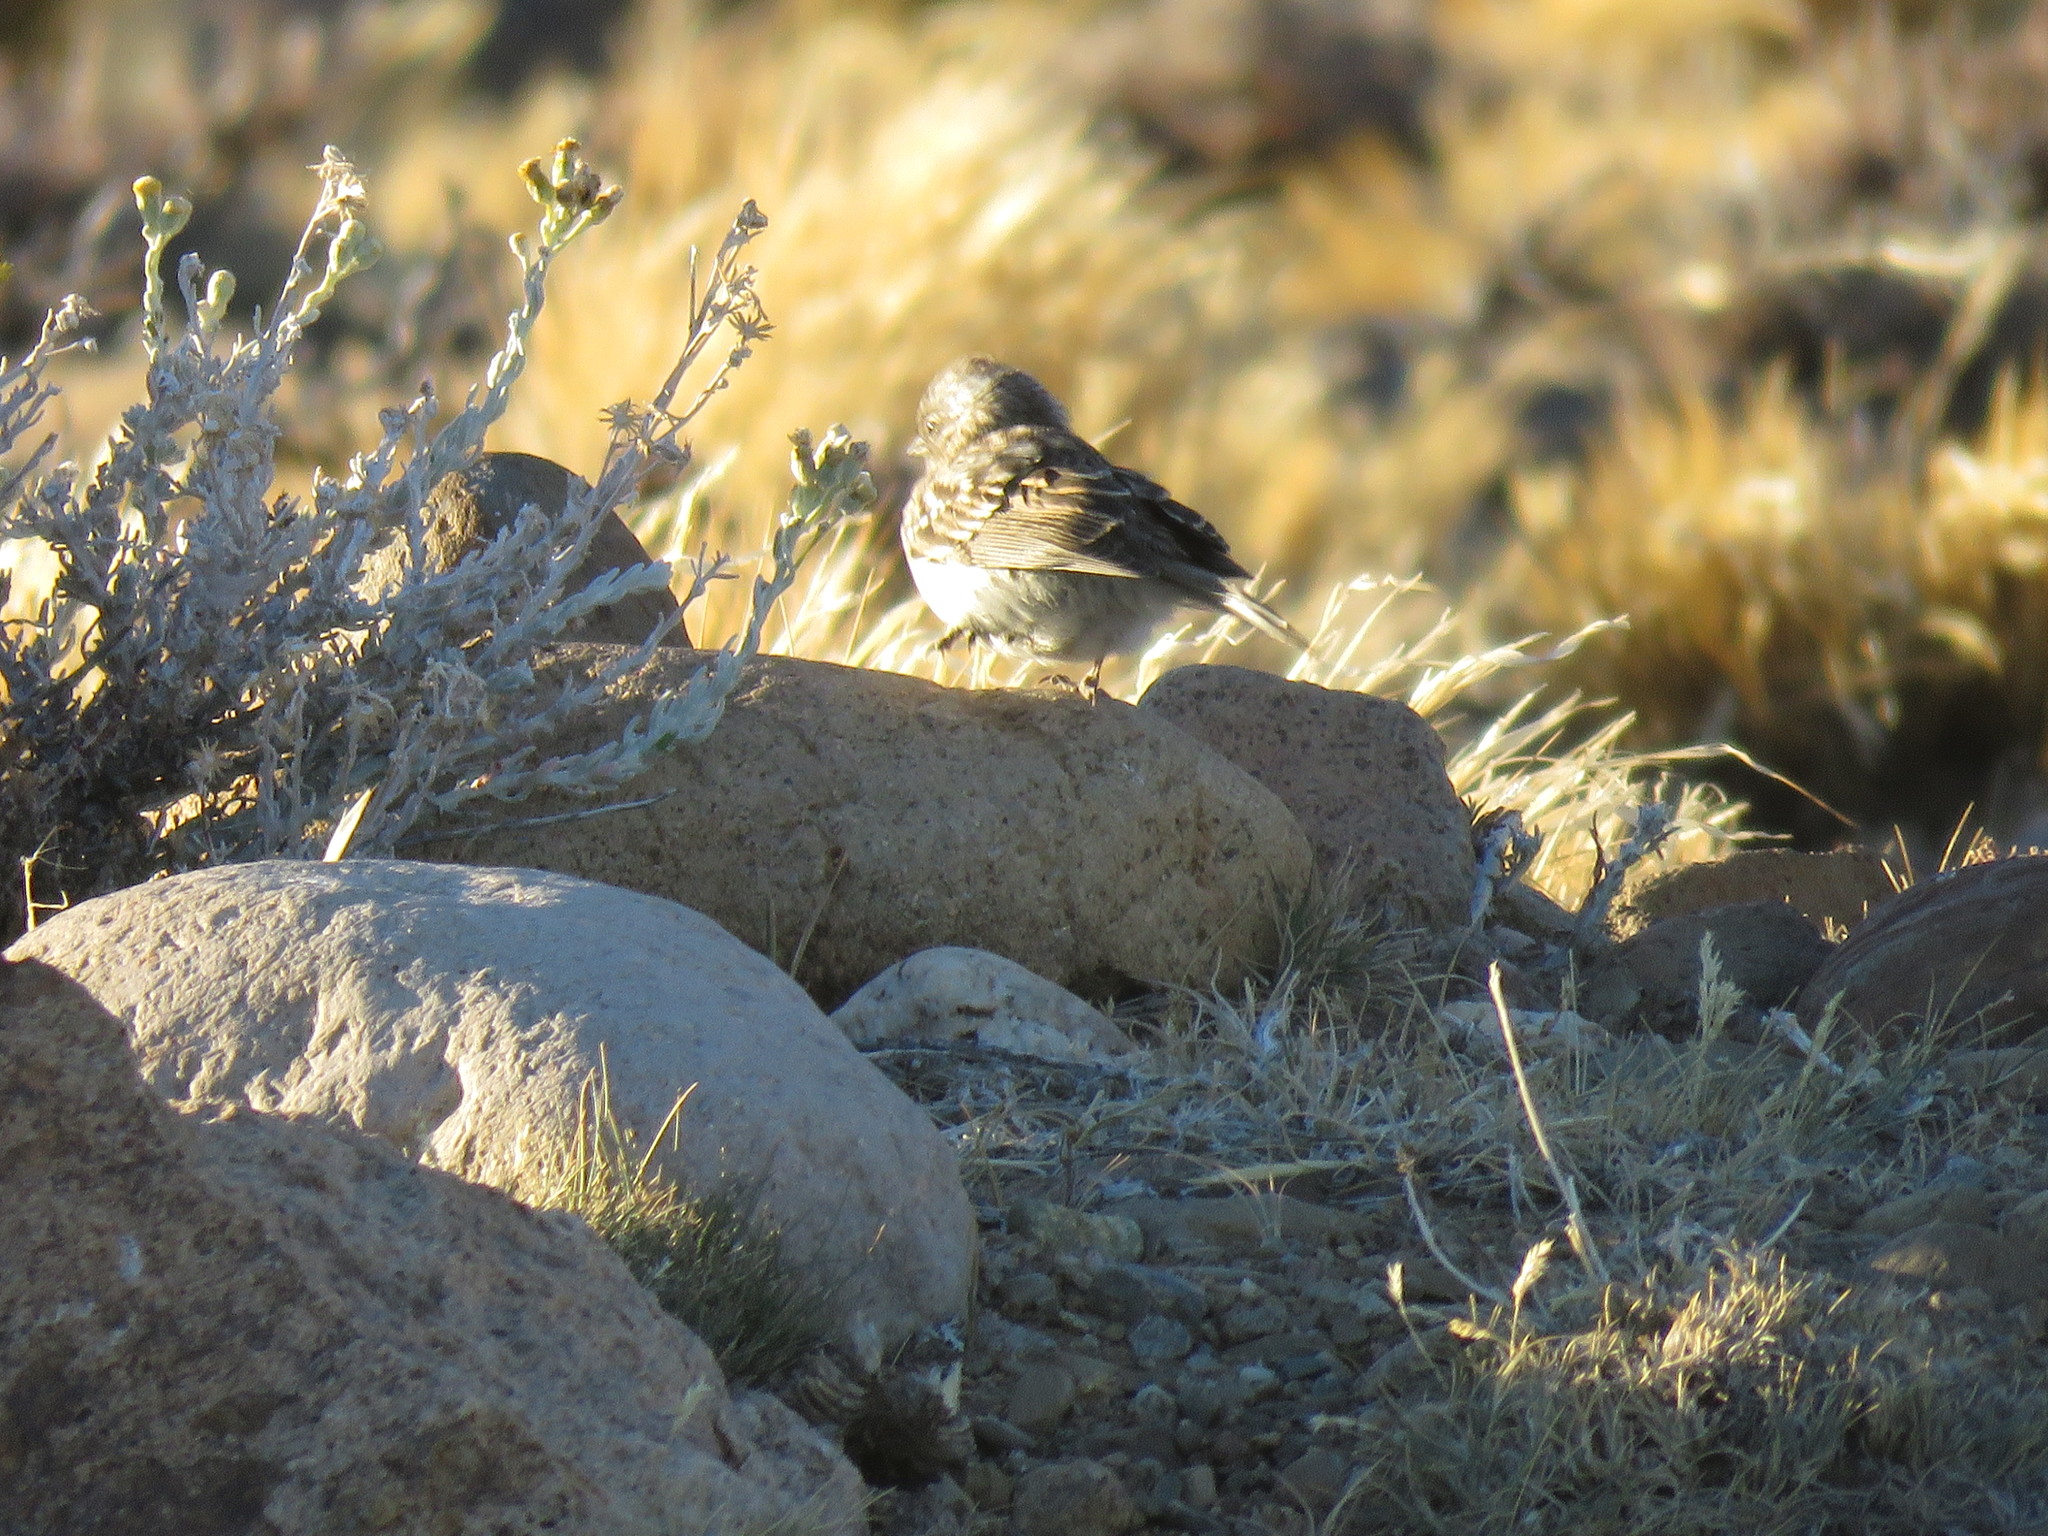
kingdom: Animalia
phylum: Chordata
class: Aves
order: Passeriformes
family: Passerellidae
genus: Zonotrichia
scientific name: Zonotrichia capensis
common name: Rufous-collared sparrow
